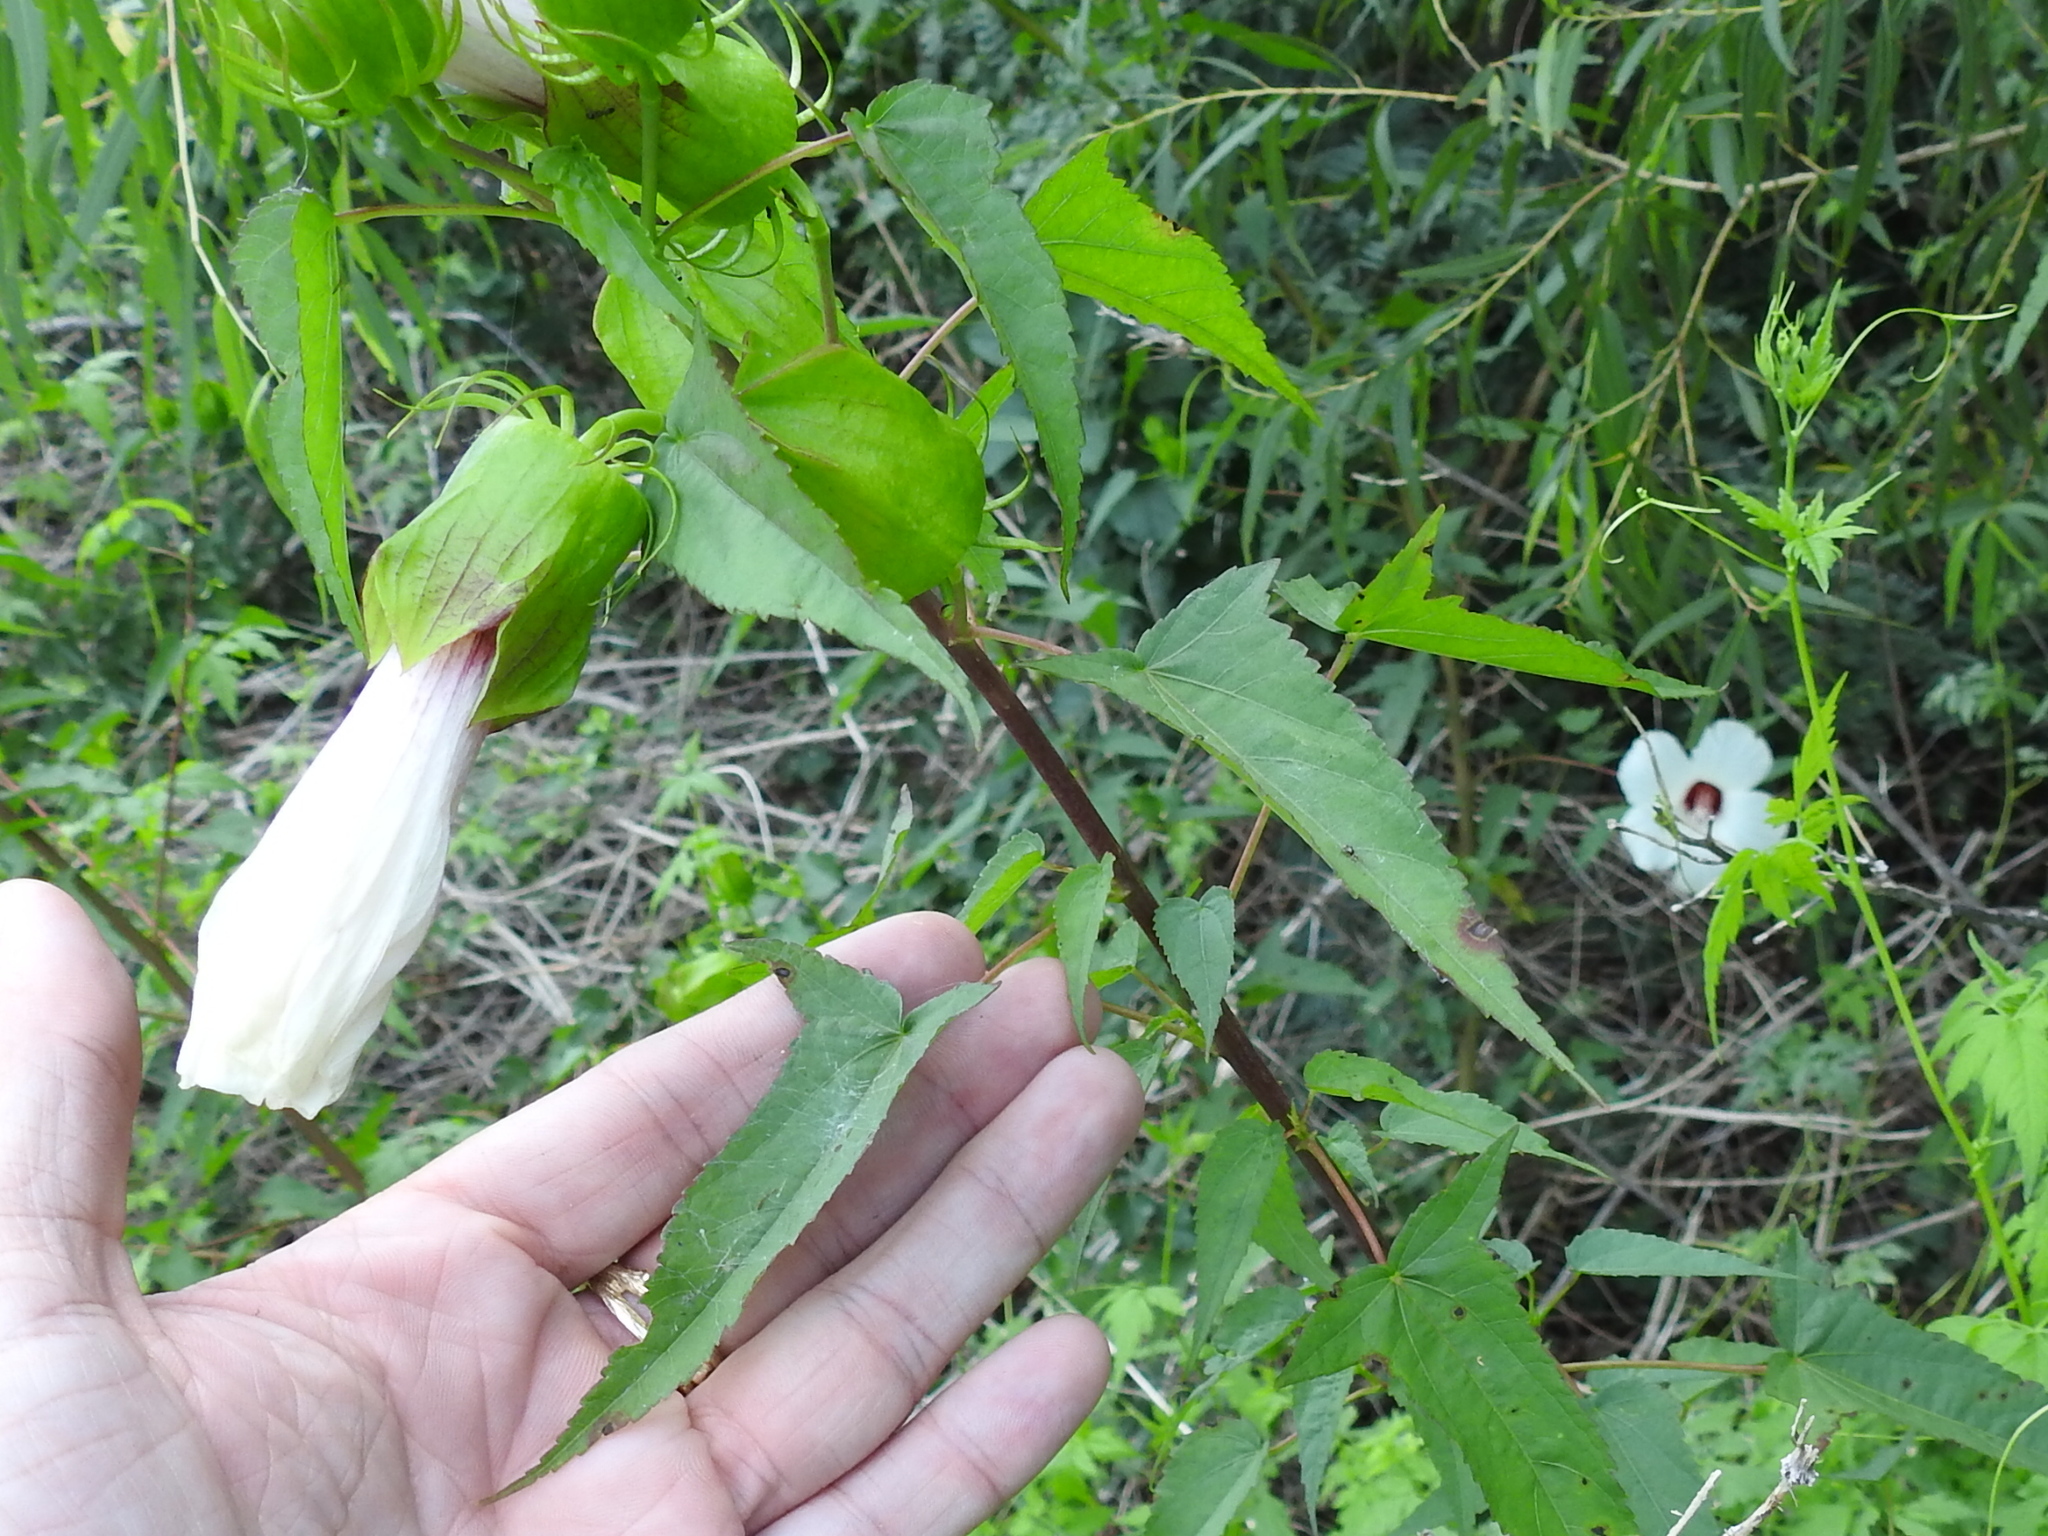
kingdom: Plantae
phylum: Tracheophyta
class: Magnoliopsida
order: Malvales
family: Malvaceae
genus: Hibiscus
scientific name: Hibiscus laevis
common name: Scarlet rose-mallow
